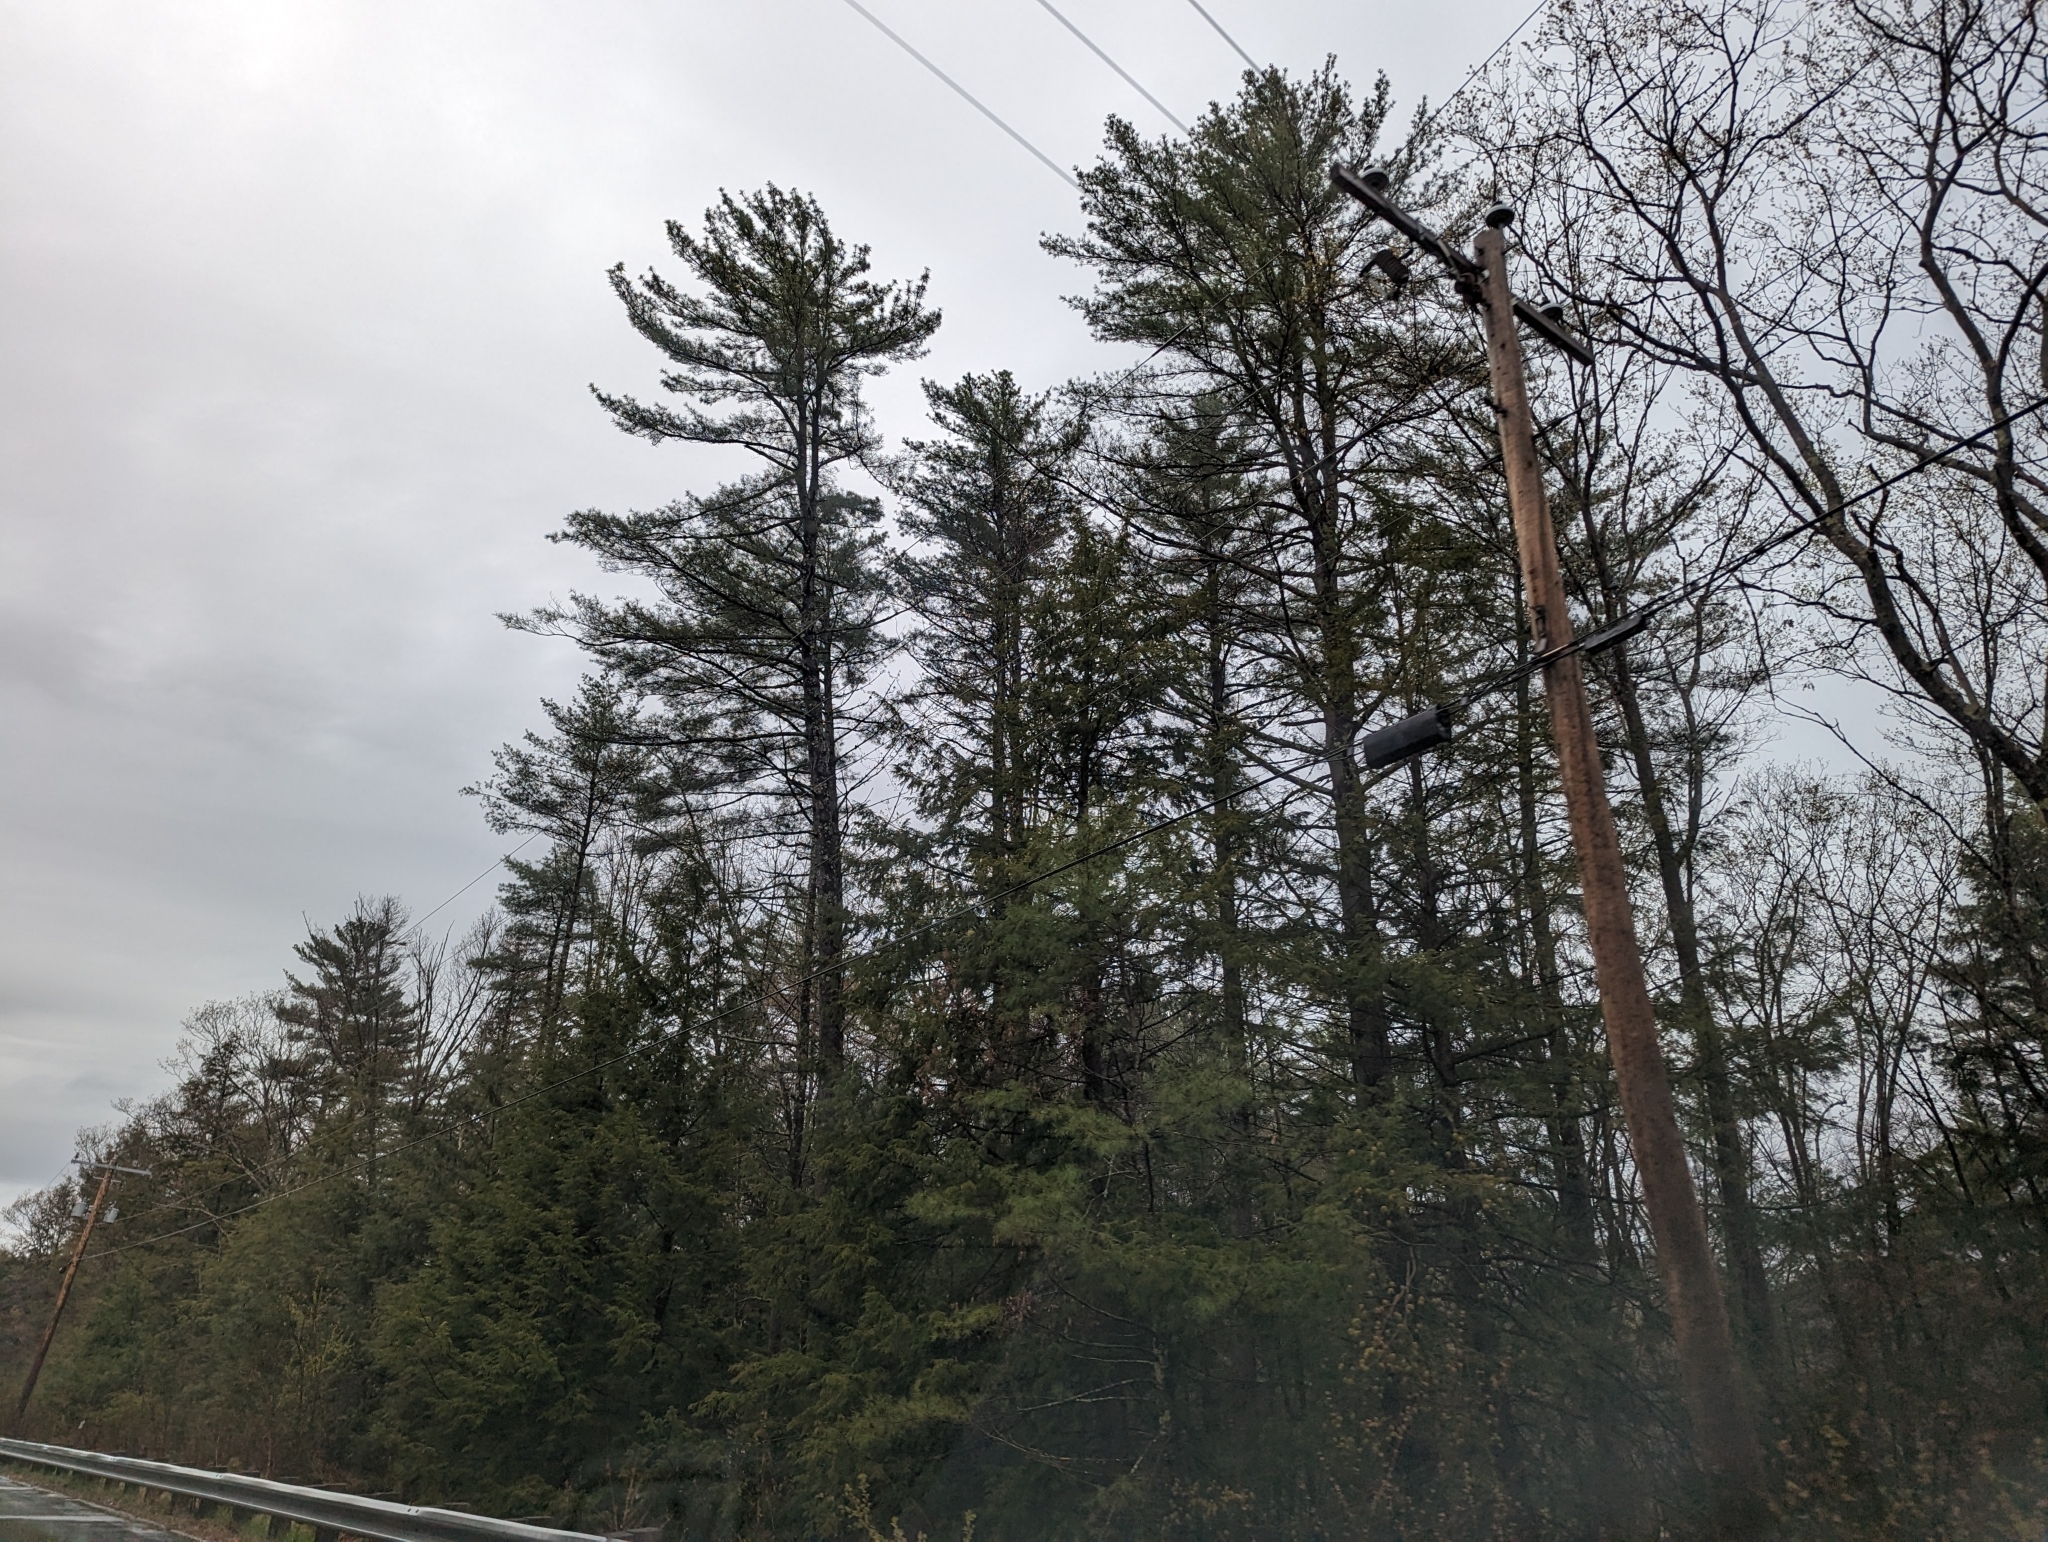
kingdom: Plantae
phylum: Tracheophyta
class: Pinopsida
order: Pinales
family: Pinaceae
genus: Pinus
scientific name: Pinus strobus
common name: Weymouth pine
